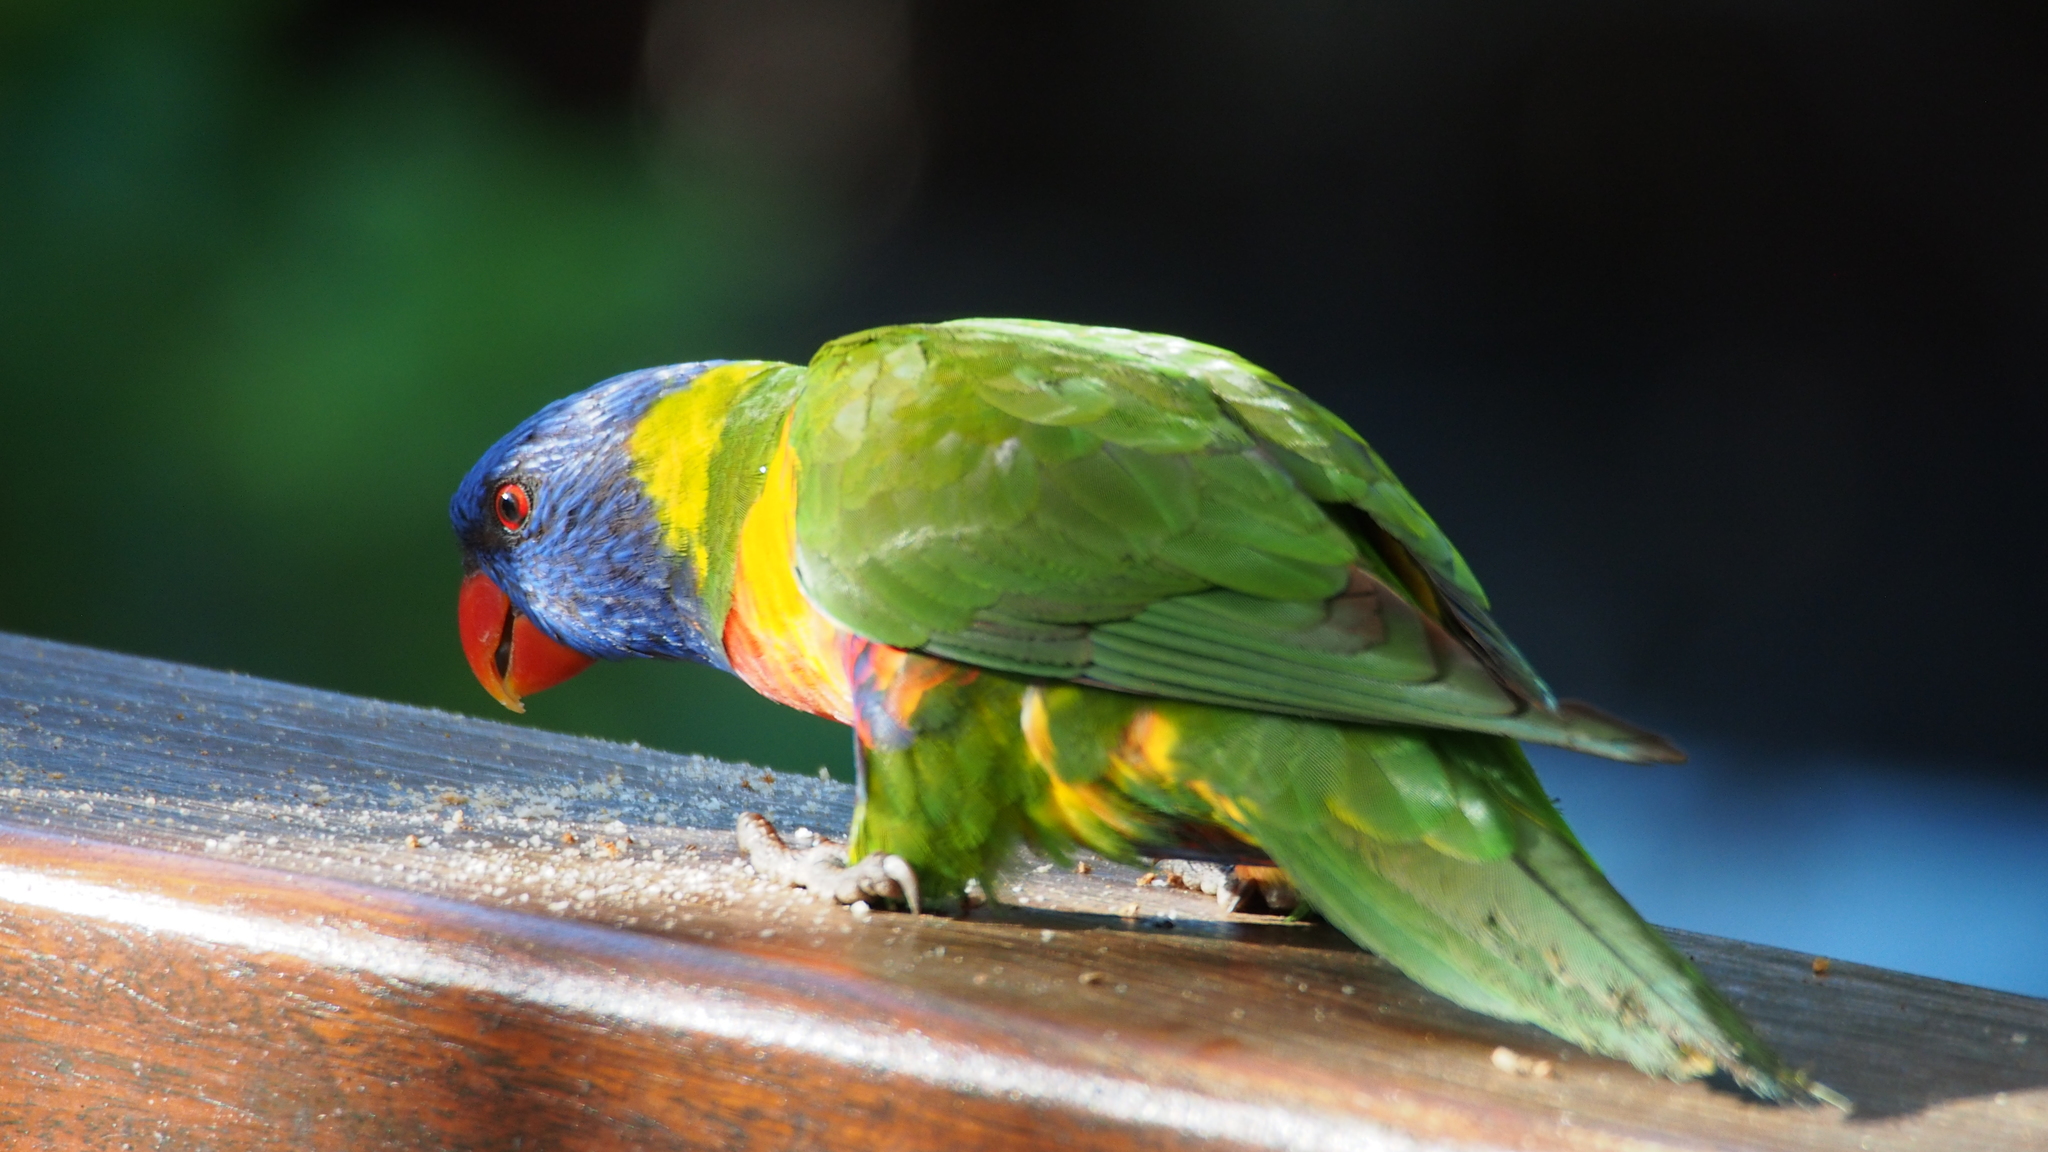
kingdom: Animalia
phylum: Chordata
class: Aves
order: Psittaciformes
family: Psittacidae
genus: Trichoglossus
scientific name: Trichoglossus haematodus
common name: Coconut lorikeet
